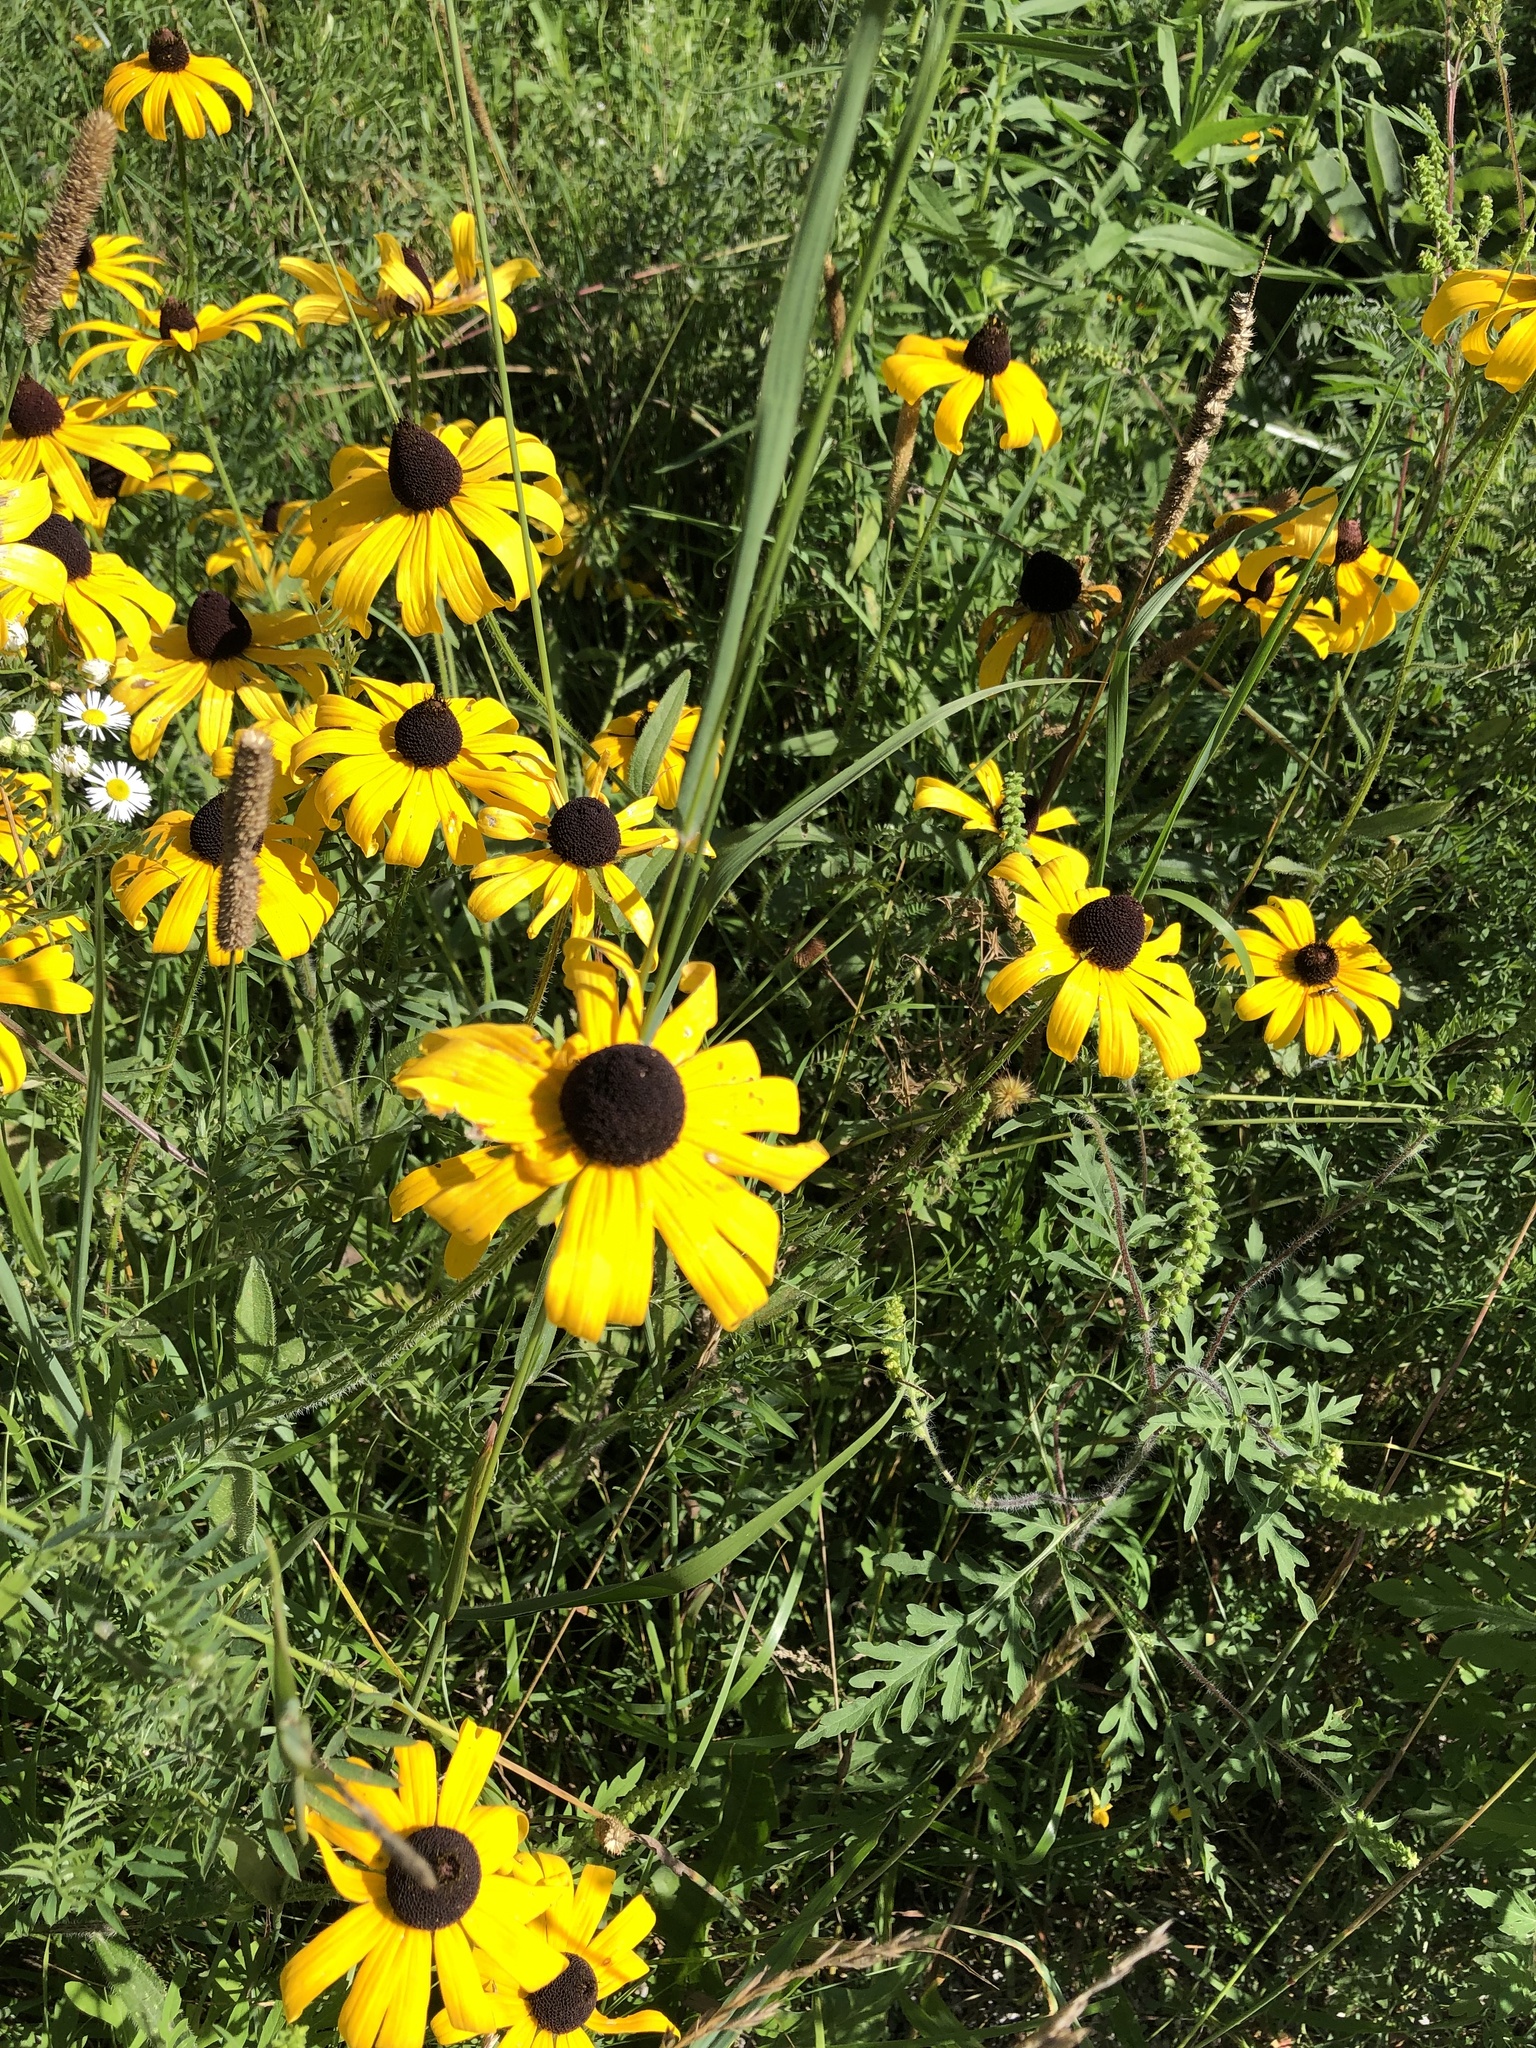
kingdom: Plantae
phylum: Tracheophyta
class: Magnoliopsida
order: Asterales
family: Asteraceae
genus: Rudbeckia
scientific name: Rudbeckia hirta
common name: Black-eyed-susan
